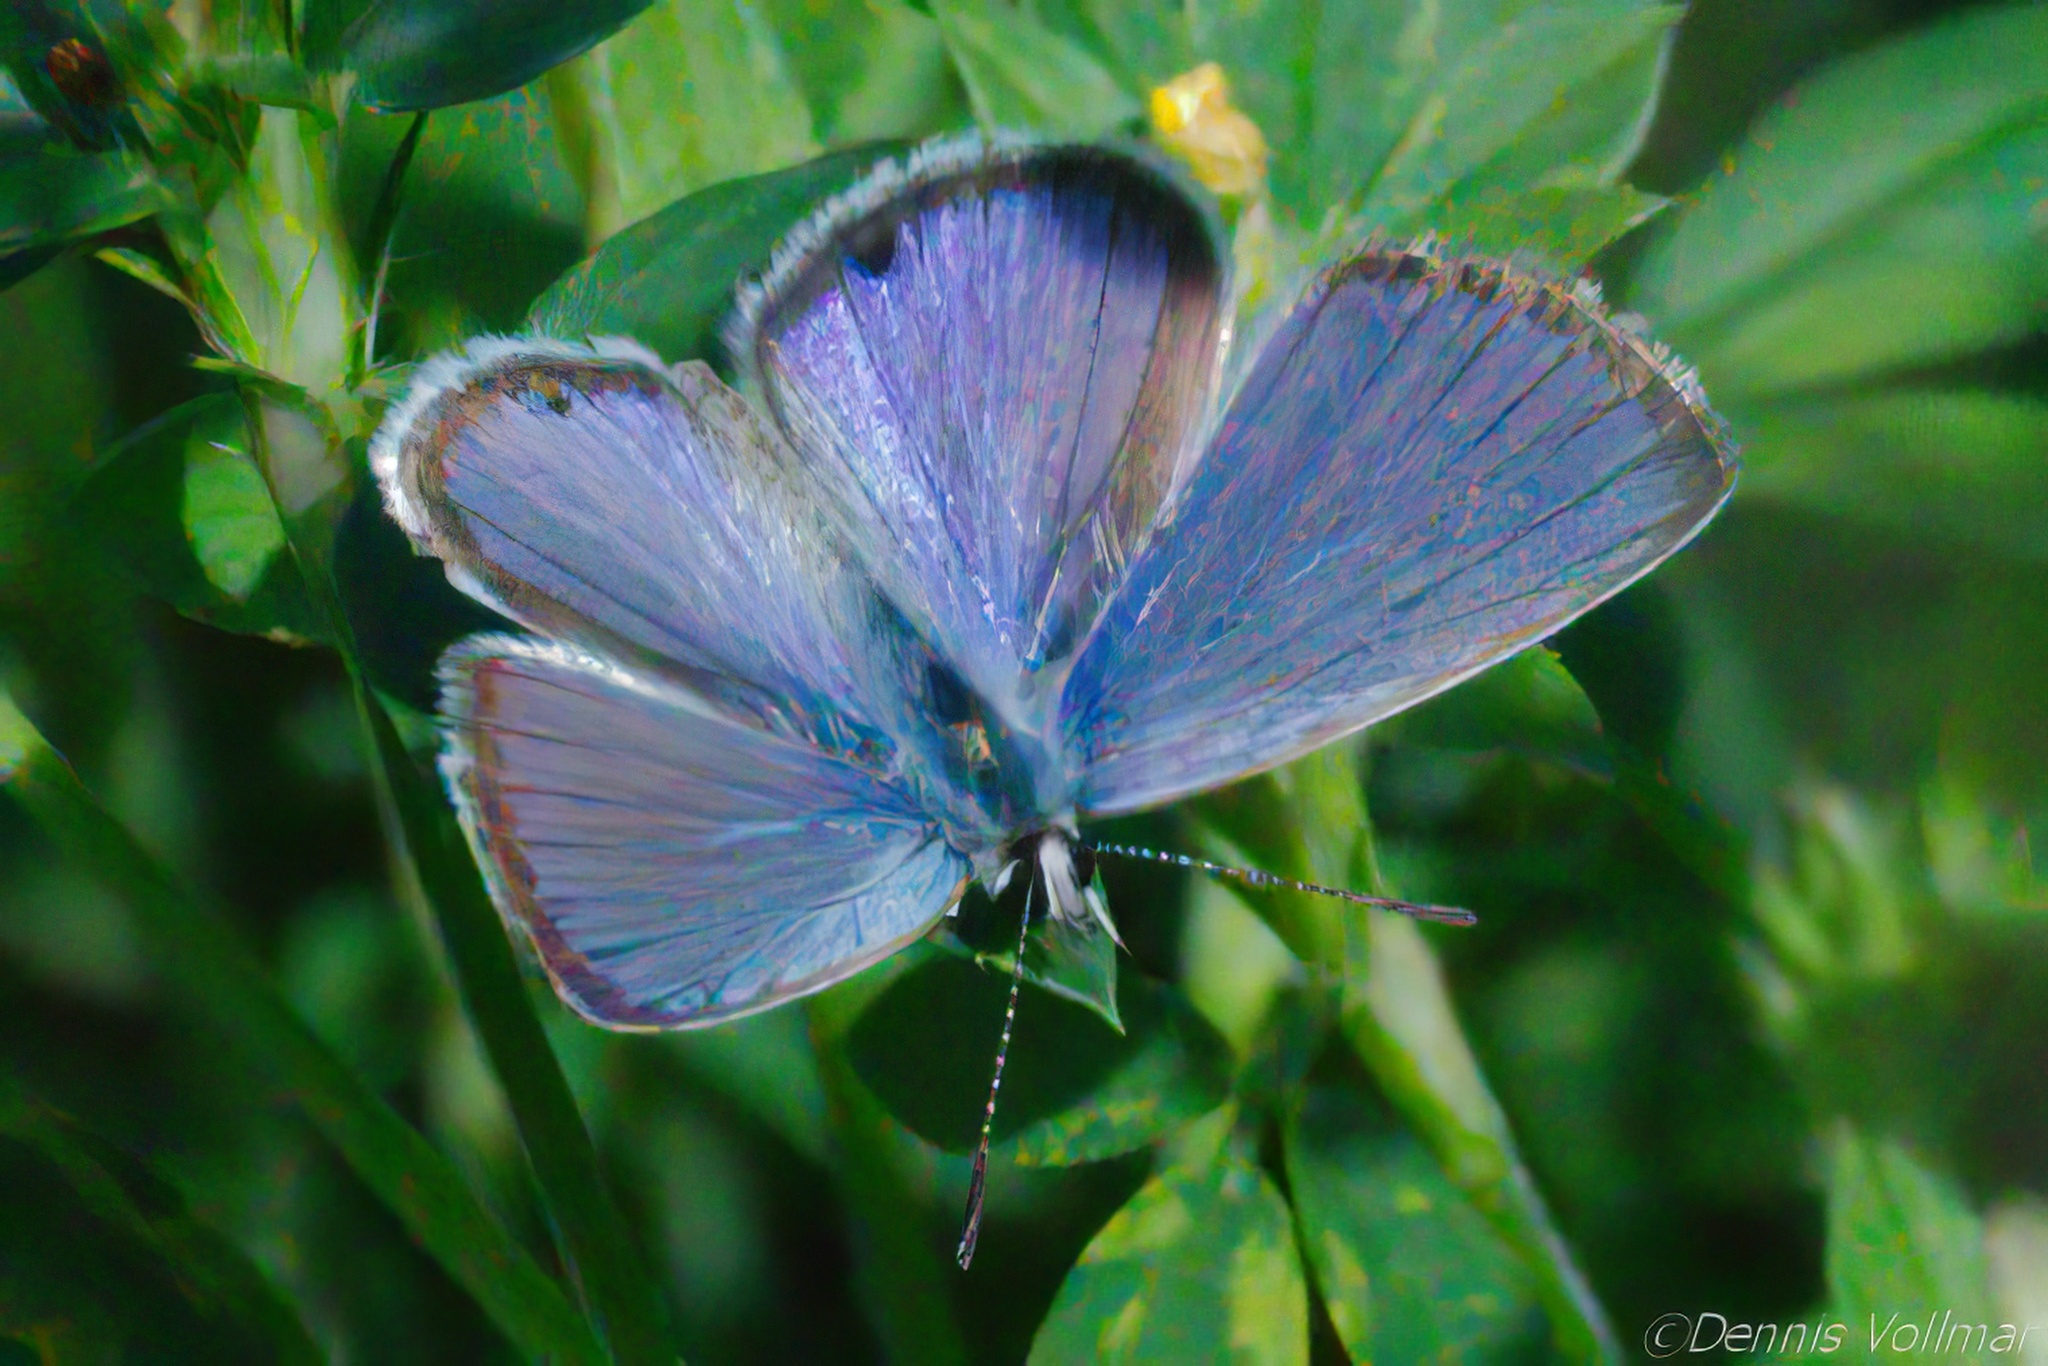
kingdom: Animalia
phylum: Arthropoda
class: Insecta
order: Lepidoptera
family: Lycaenidae
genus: Hemiargus
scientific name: Hemiargus ceraunus
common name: Ceraunus blue
